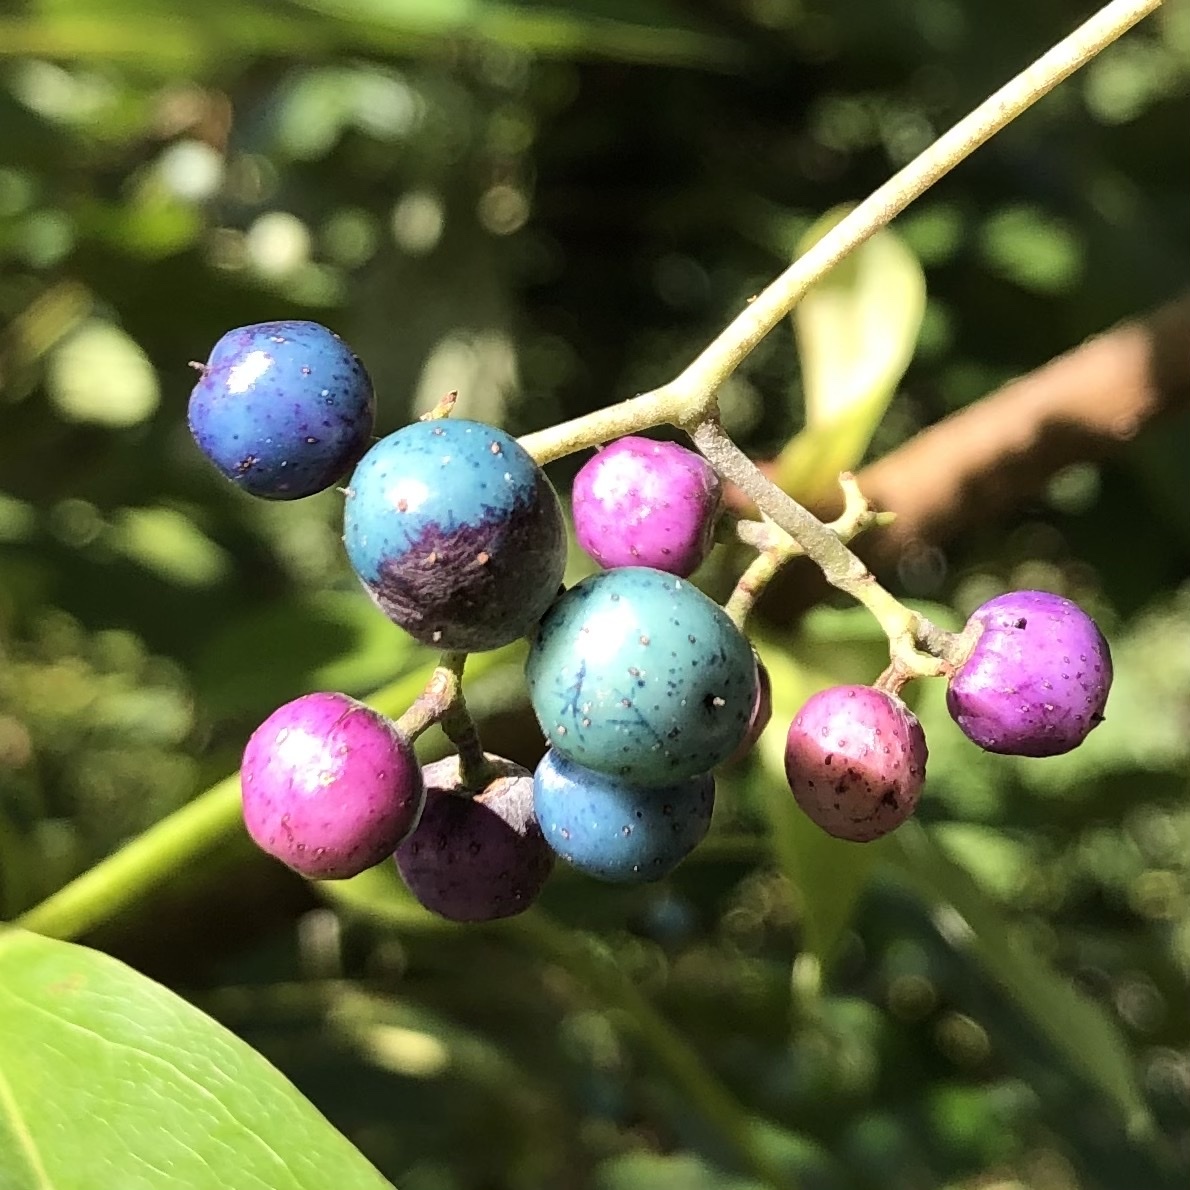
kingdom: Plantae
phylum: Tracheophyta
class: Magnoliopsida
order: Vitales
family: Vitaceae
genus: Ampelopsis
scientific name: Ampelopsis glandulosa
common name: Amur peppervine
